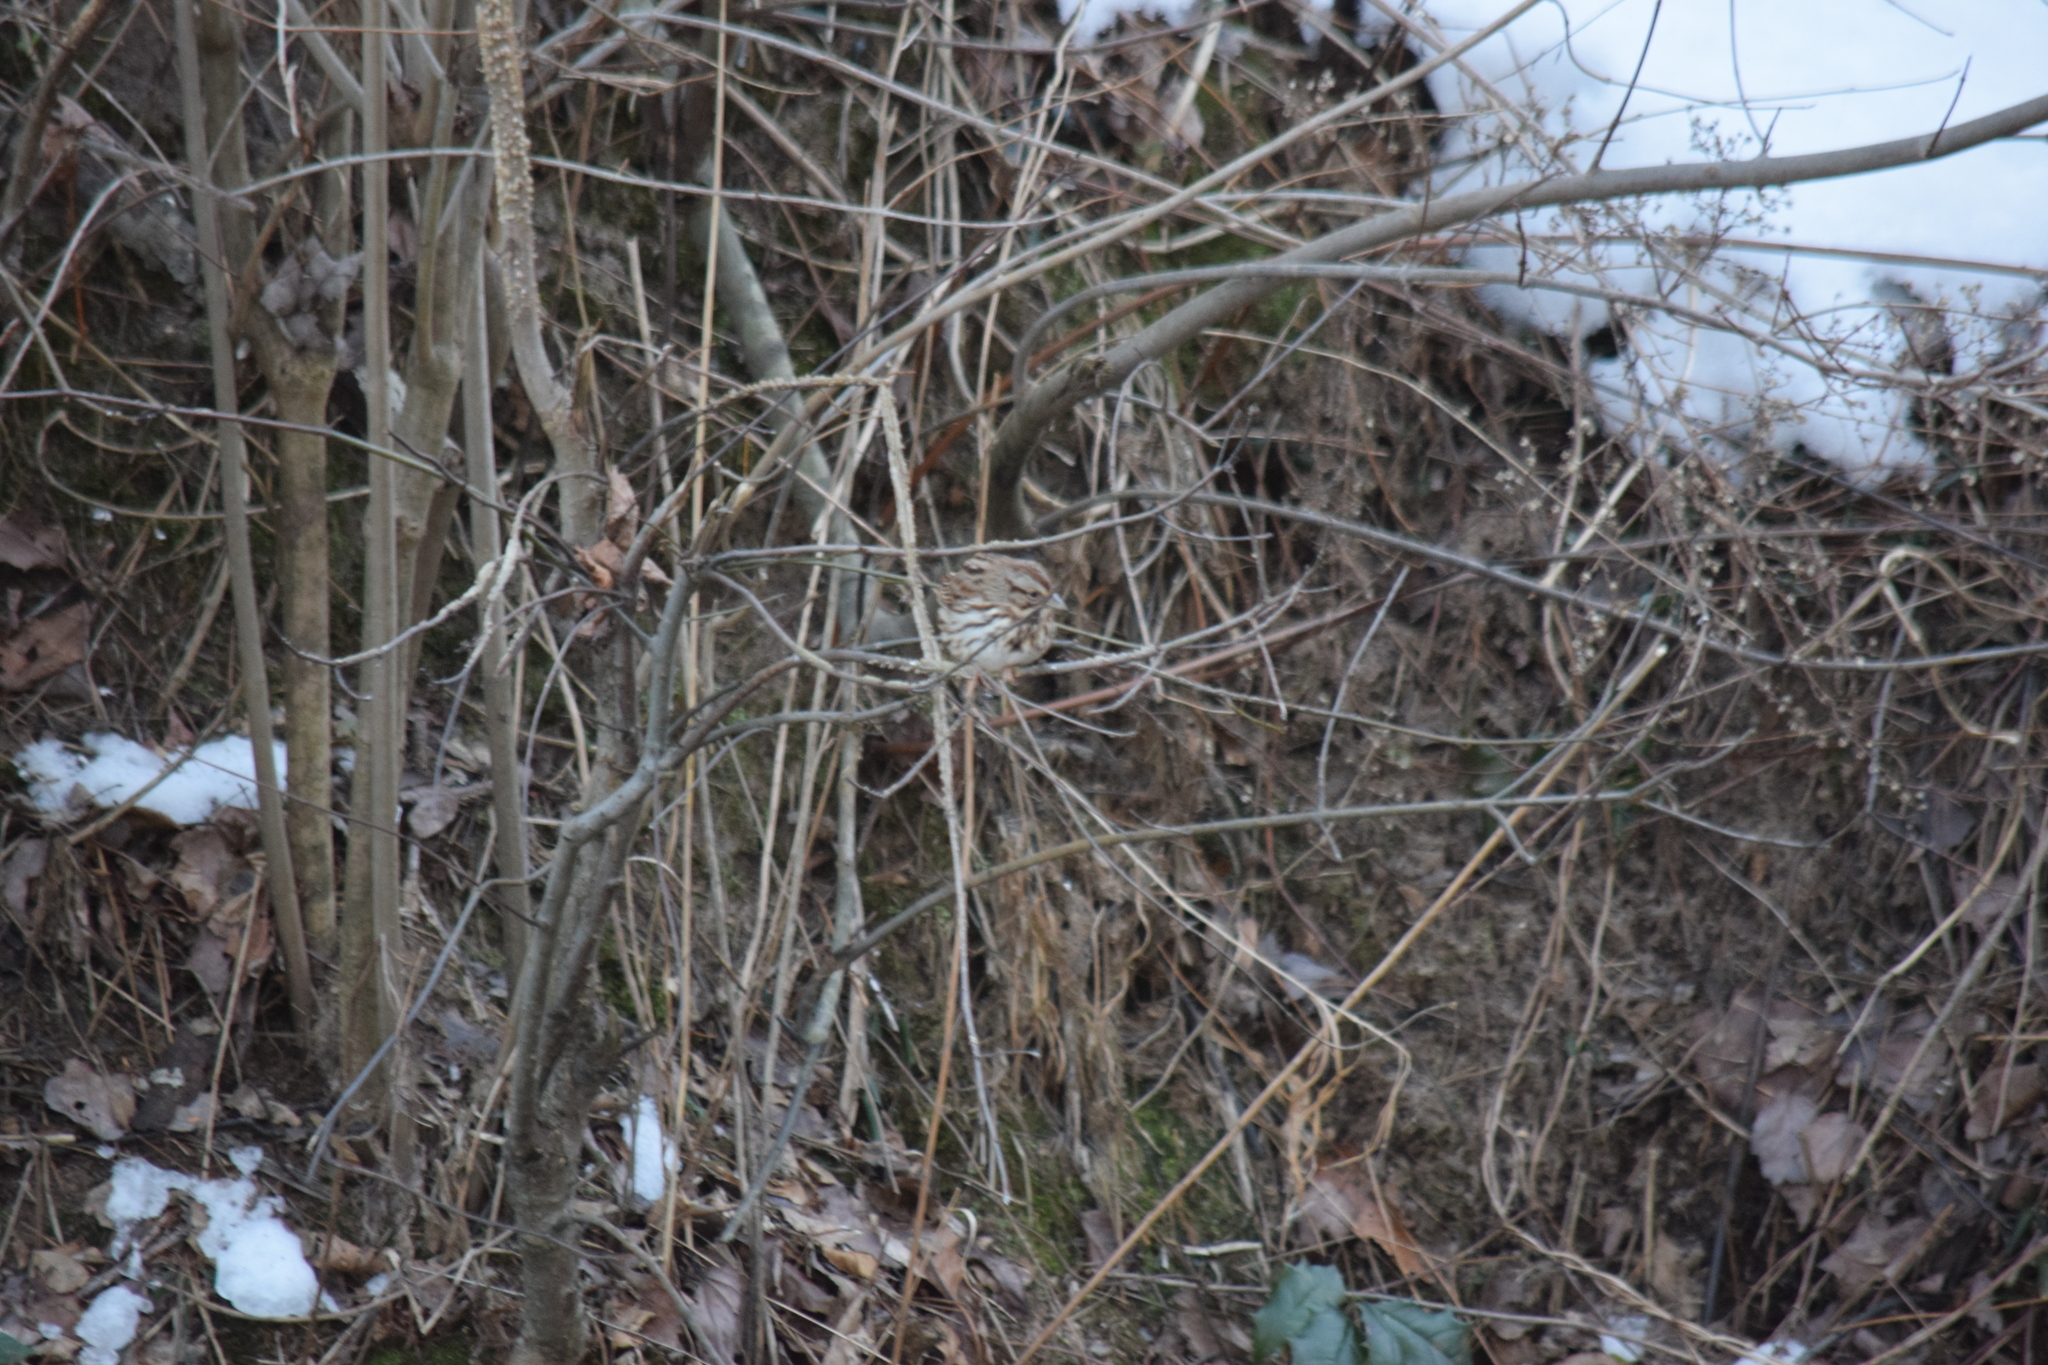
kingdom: Animalia
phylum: Chordata
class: Aves
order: Passeriformes
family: Passerellidae
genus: Melospiza
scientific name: Melospiza melodia
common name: Song sparrow
